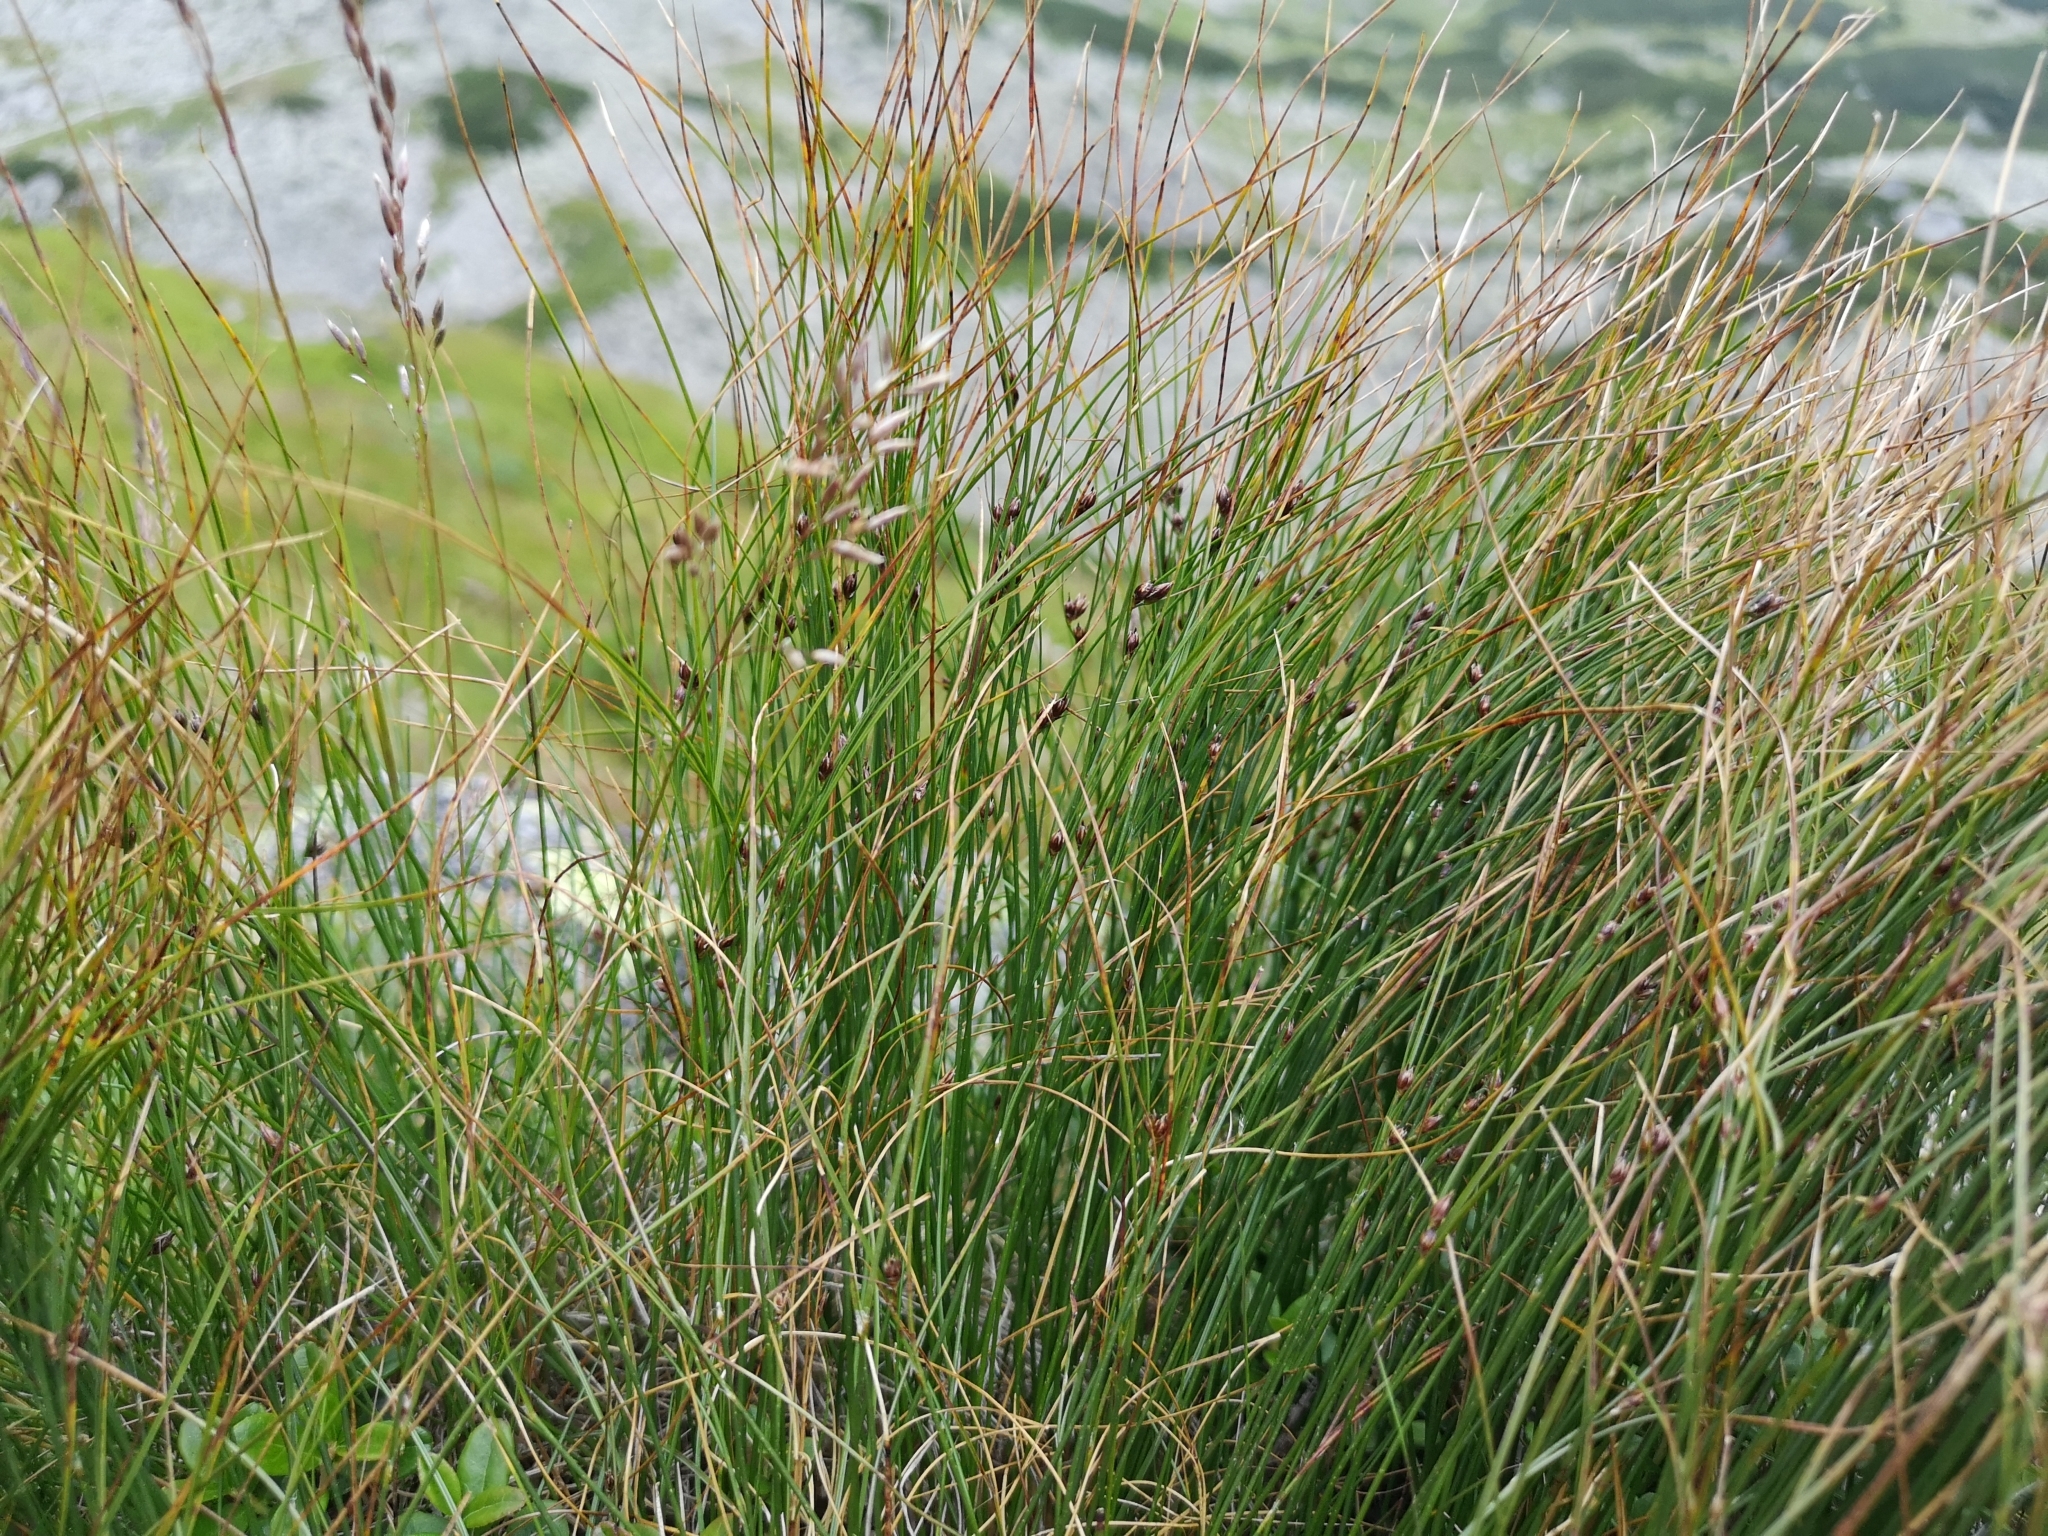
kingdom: Plantae
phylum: Tracheophyta
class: Liliopsida
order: Poales
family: Juncaceae
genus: Oreojuncus
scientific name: Oreojuncus trifidus
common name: Highland rush
